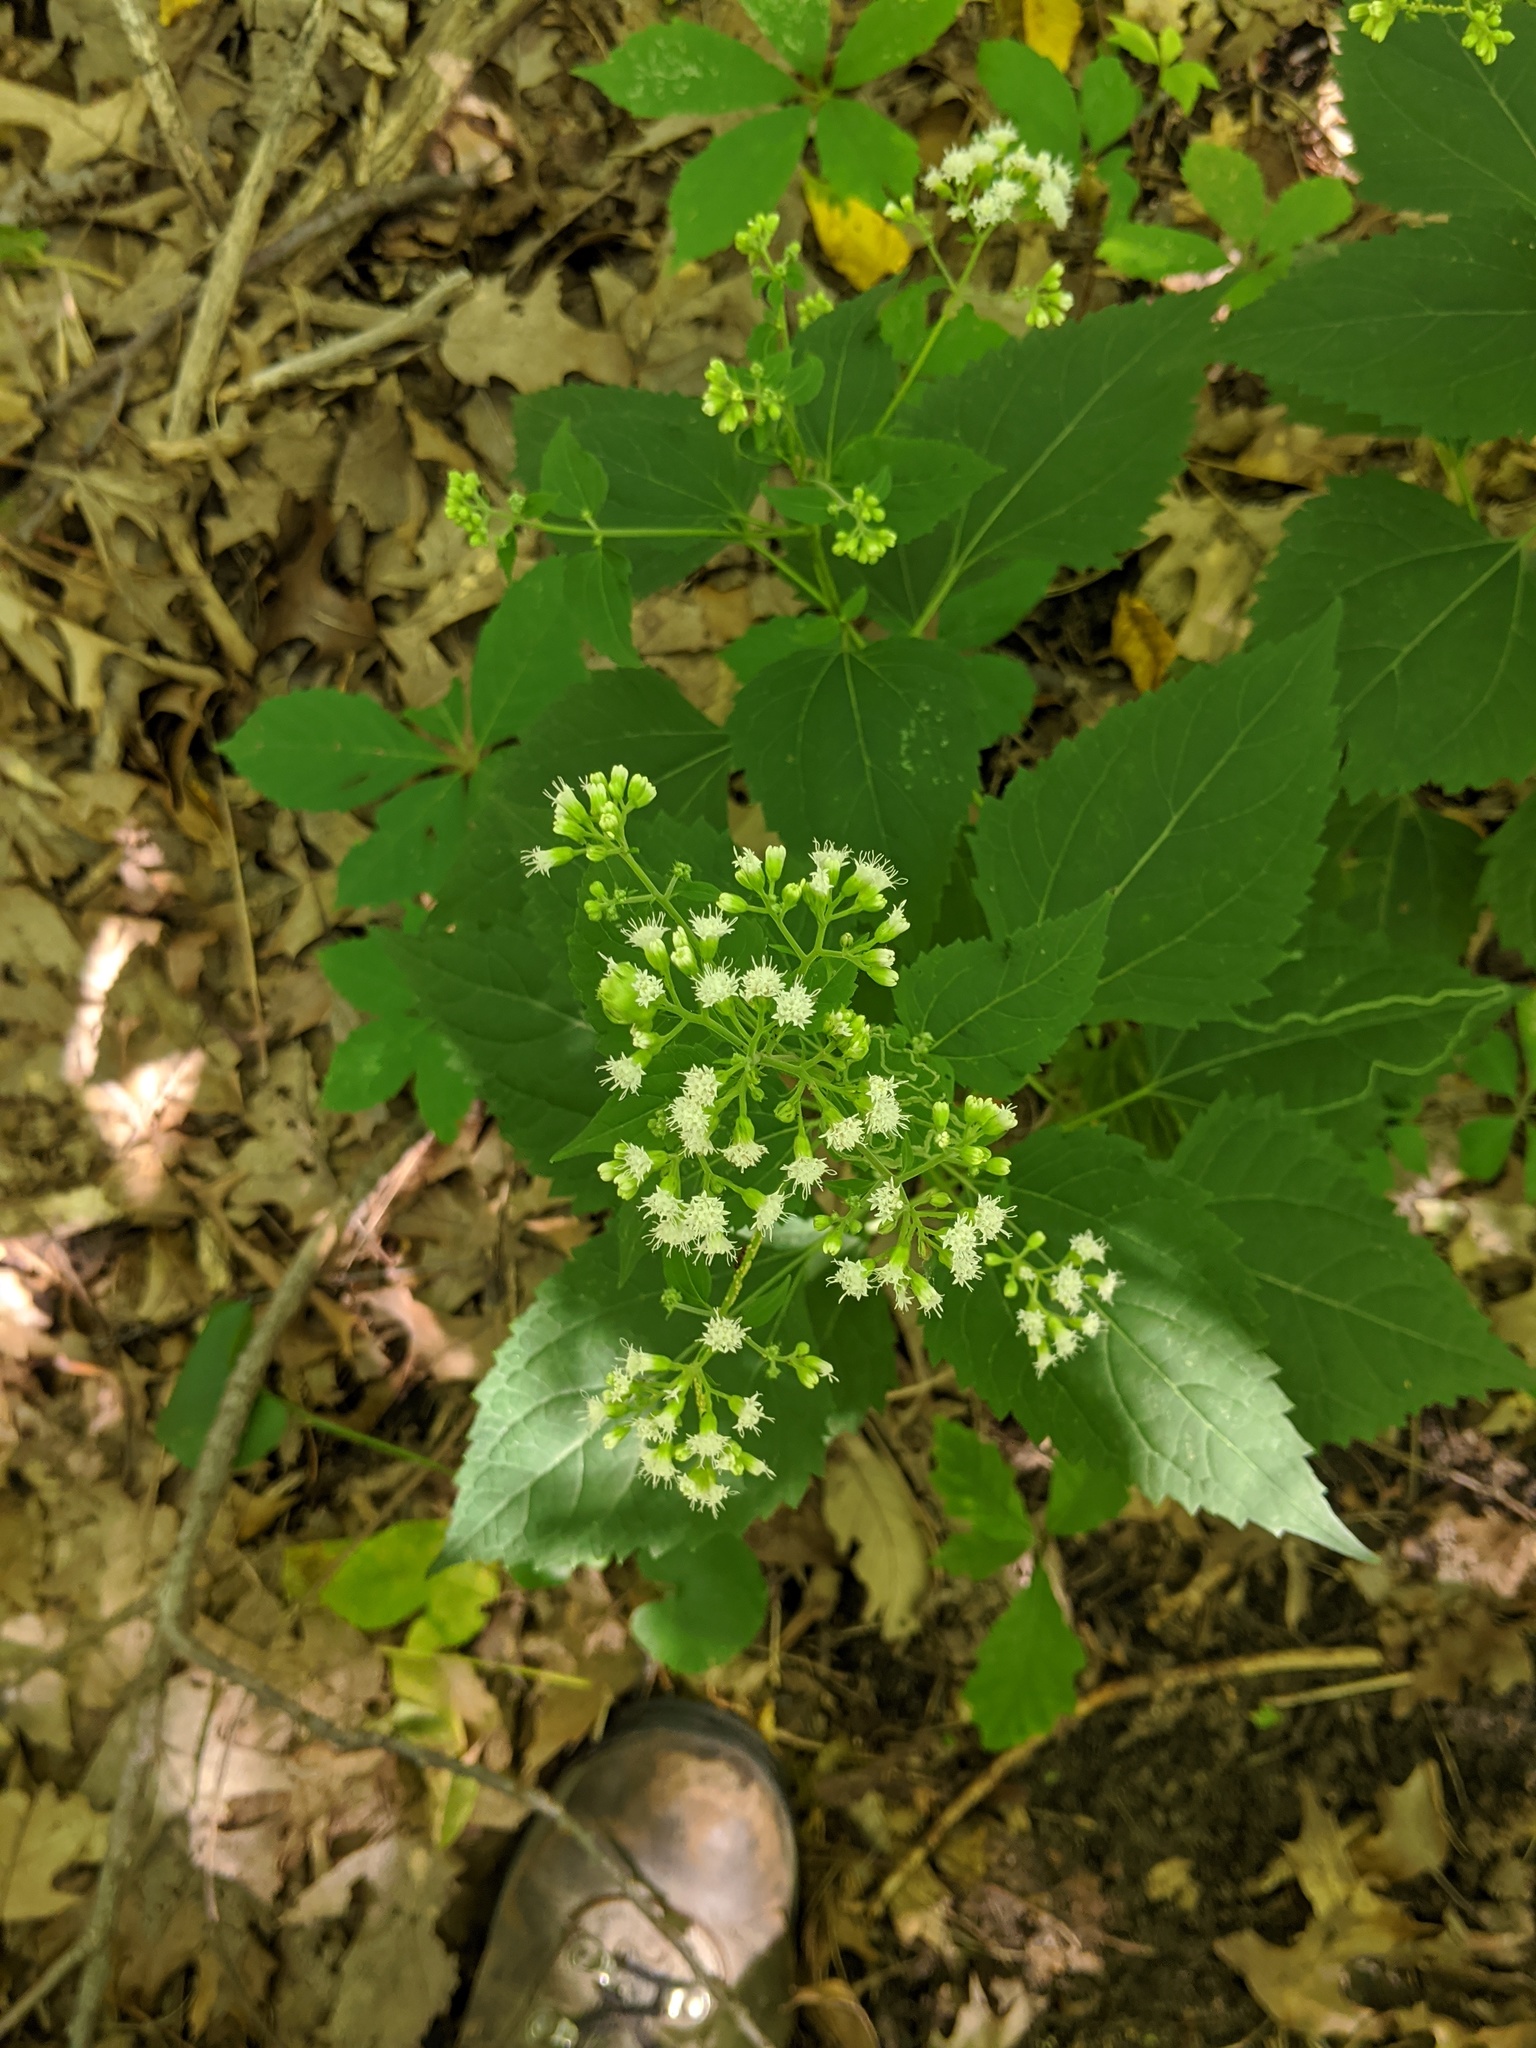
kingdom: Plantae
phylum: Tracheophyta
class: Magnoliopsida
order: Asterales
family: Asteraceae
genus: Ageratina
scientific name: Ageratina altissima
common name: White snakeroot
